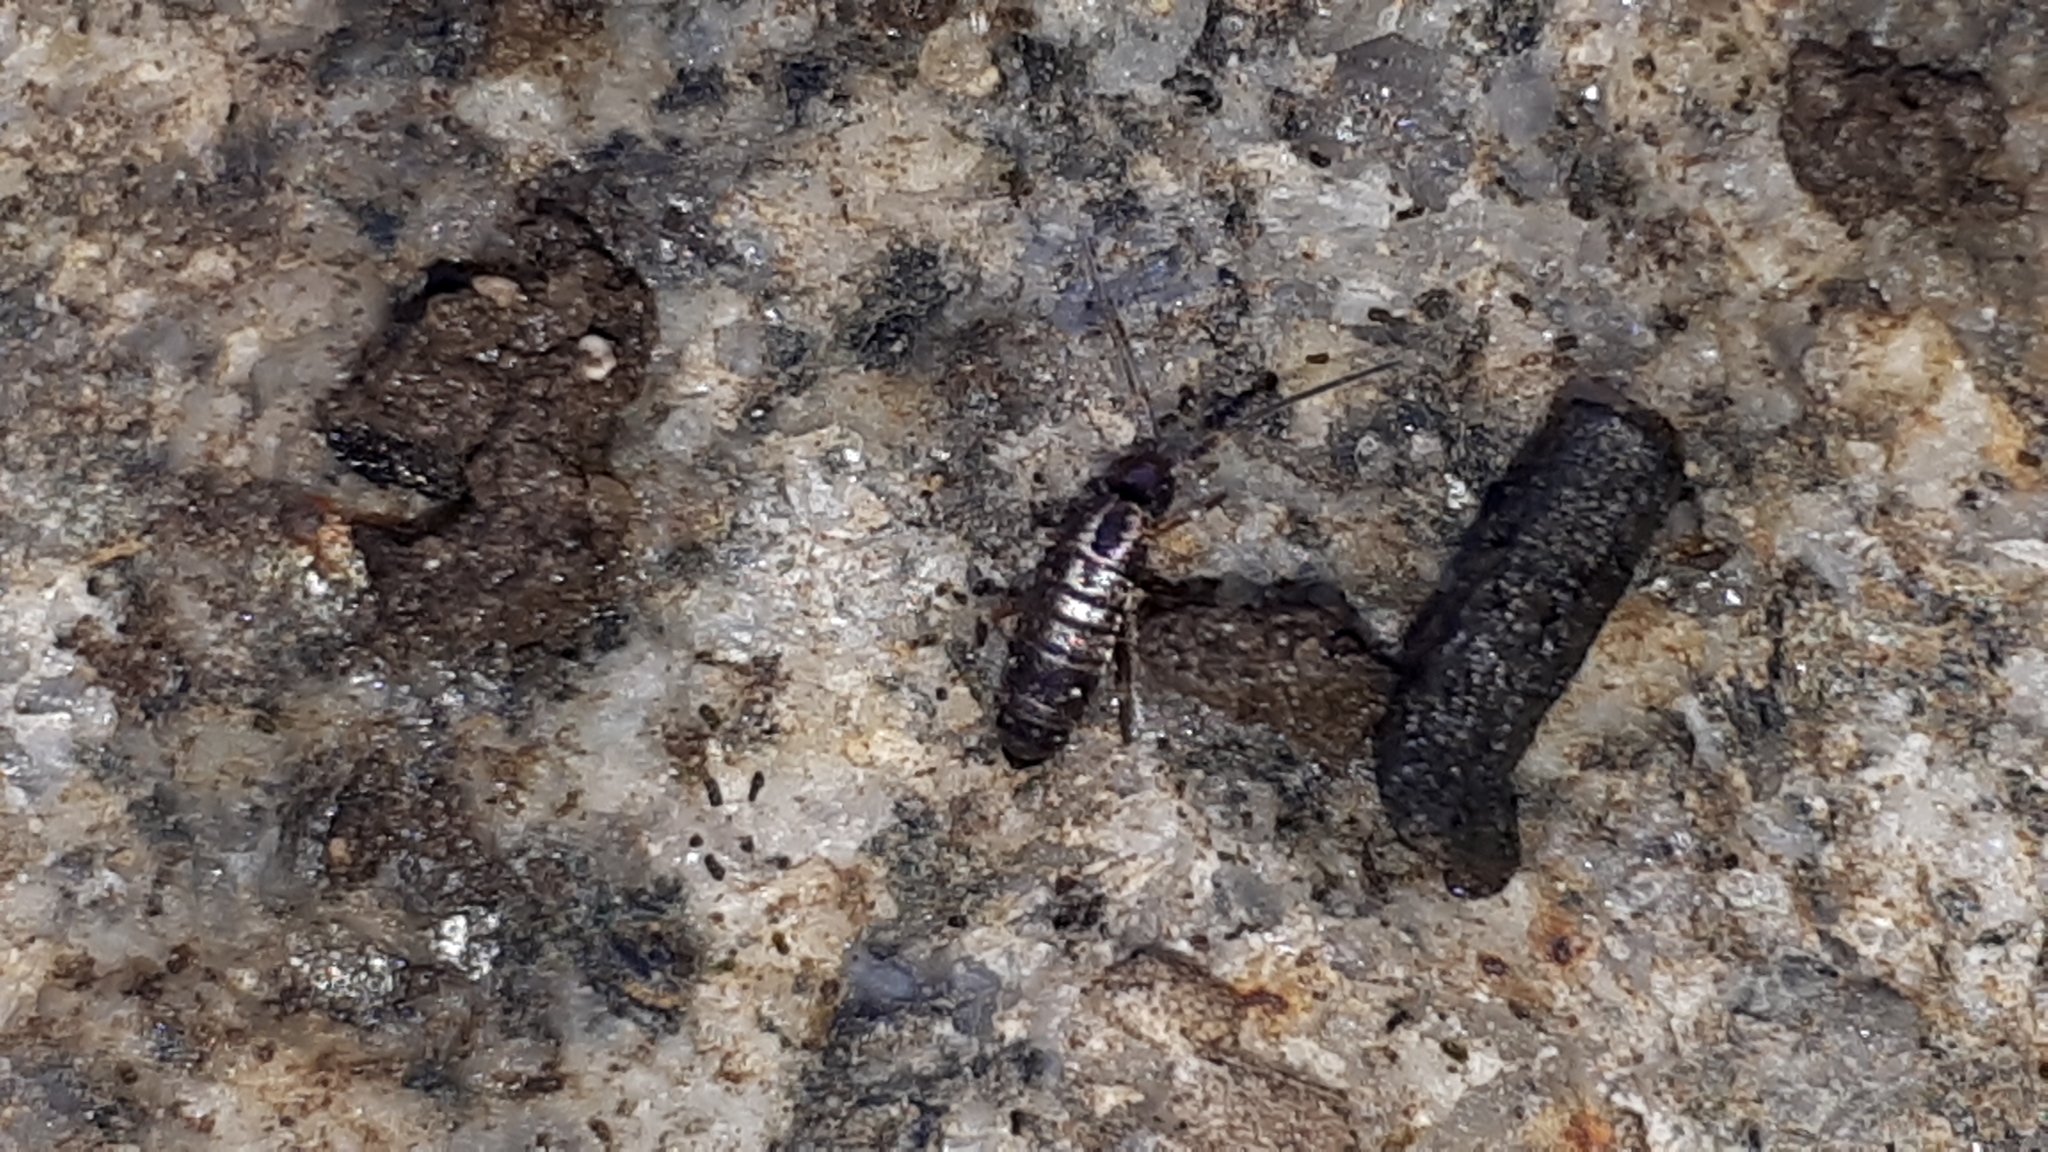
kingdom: Animalia
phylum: Arthropoda
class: Collembola
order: Entomobryomorpha
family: Tomoceridae
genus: Tomocerus
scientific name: Tomocerus vulgaris
